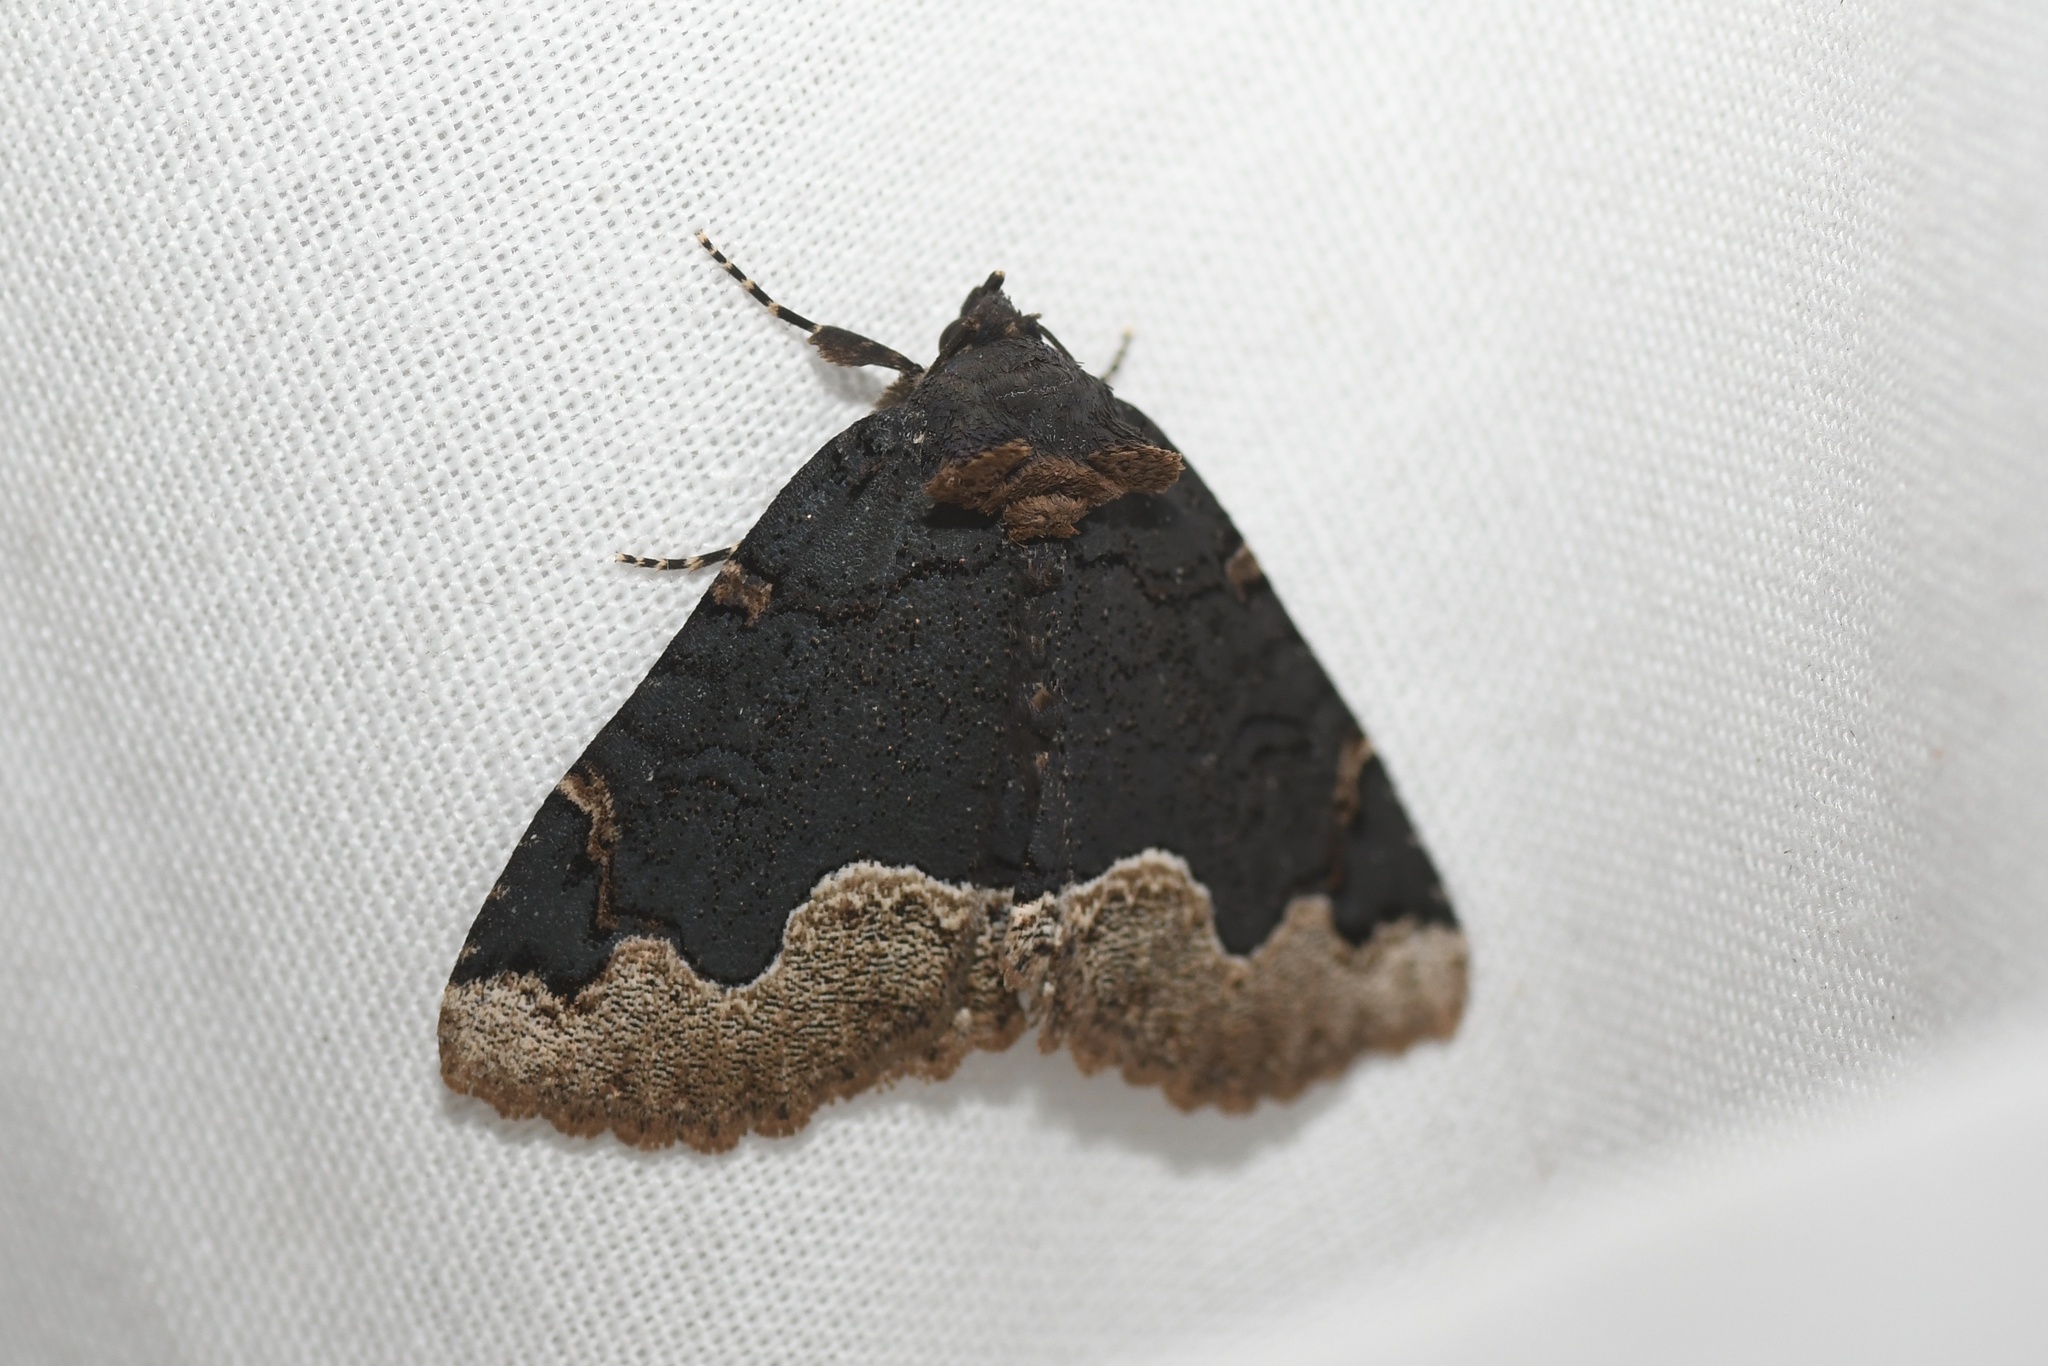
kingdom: Animalia
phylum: Arthropoda
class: Insecta
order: Lepidoptera
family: Erebidae
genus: Zale
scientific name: Zale horrida
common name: Horrid zale moth
